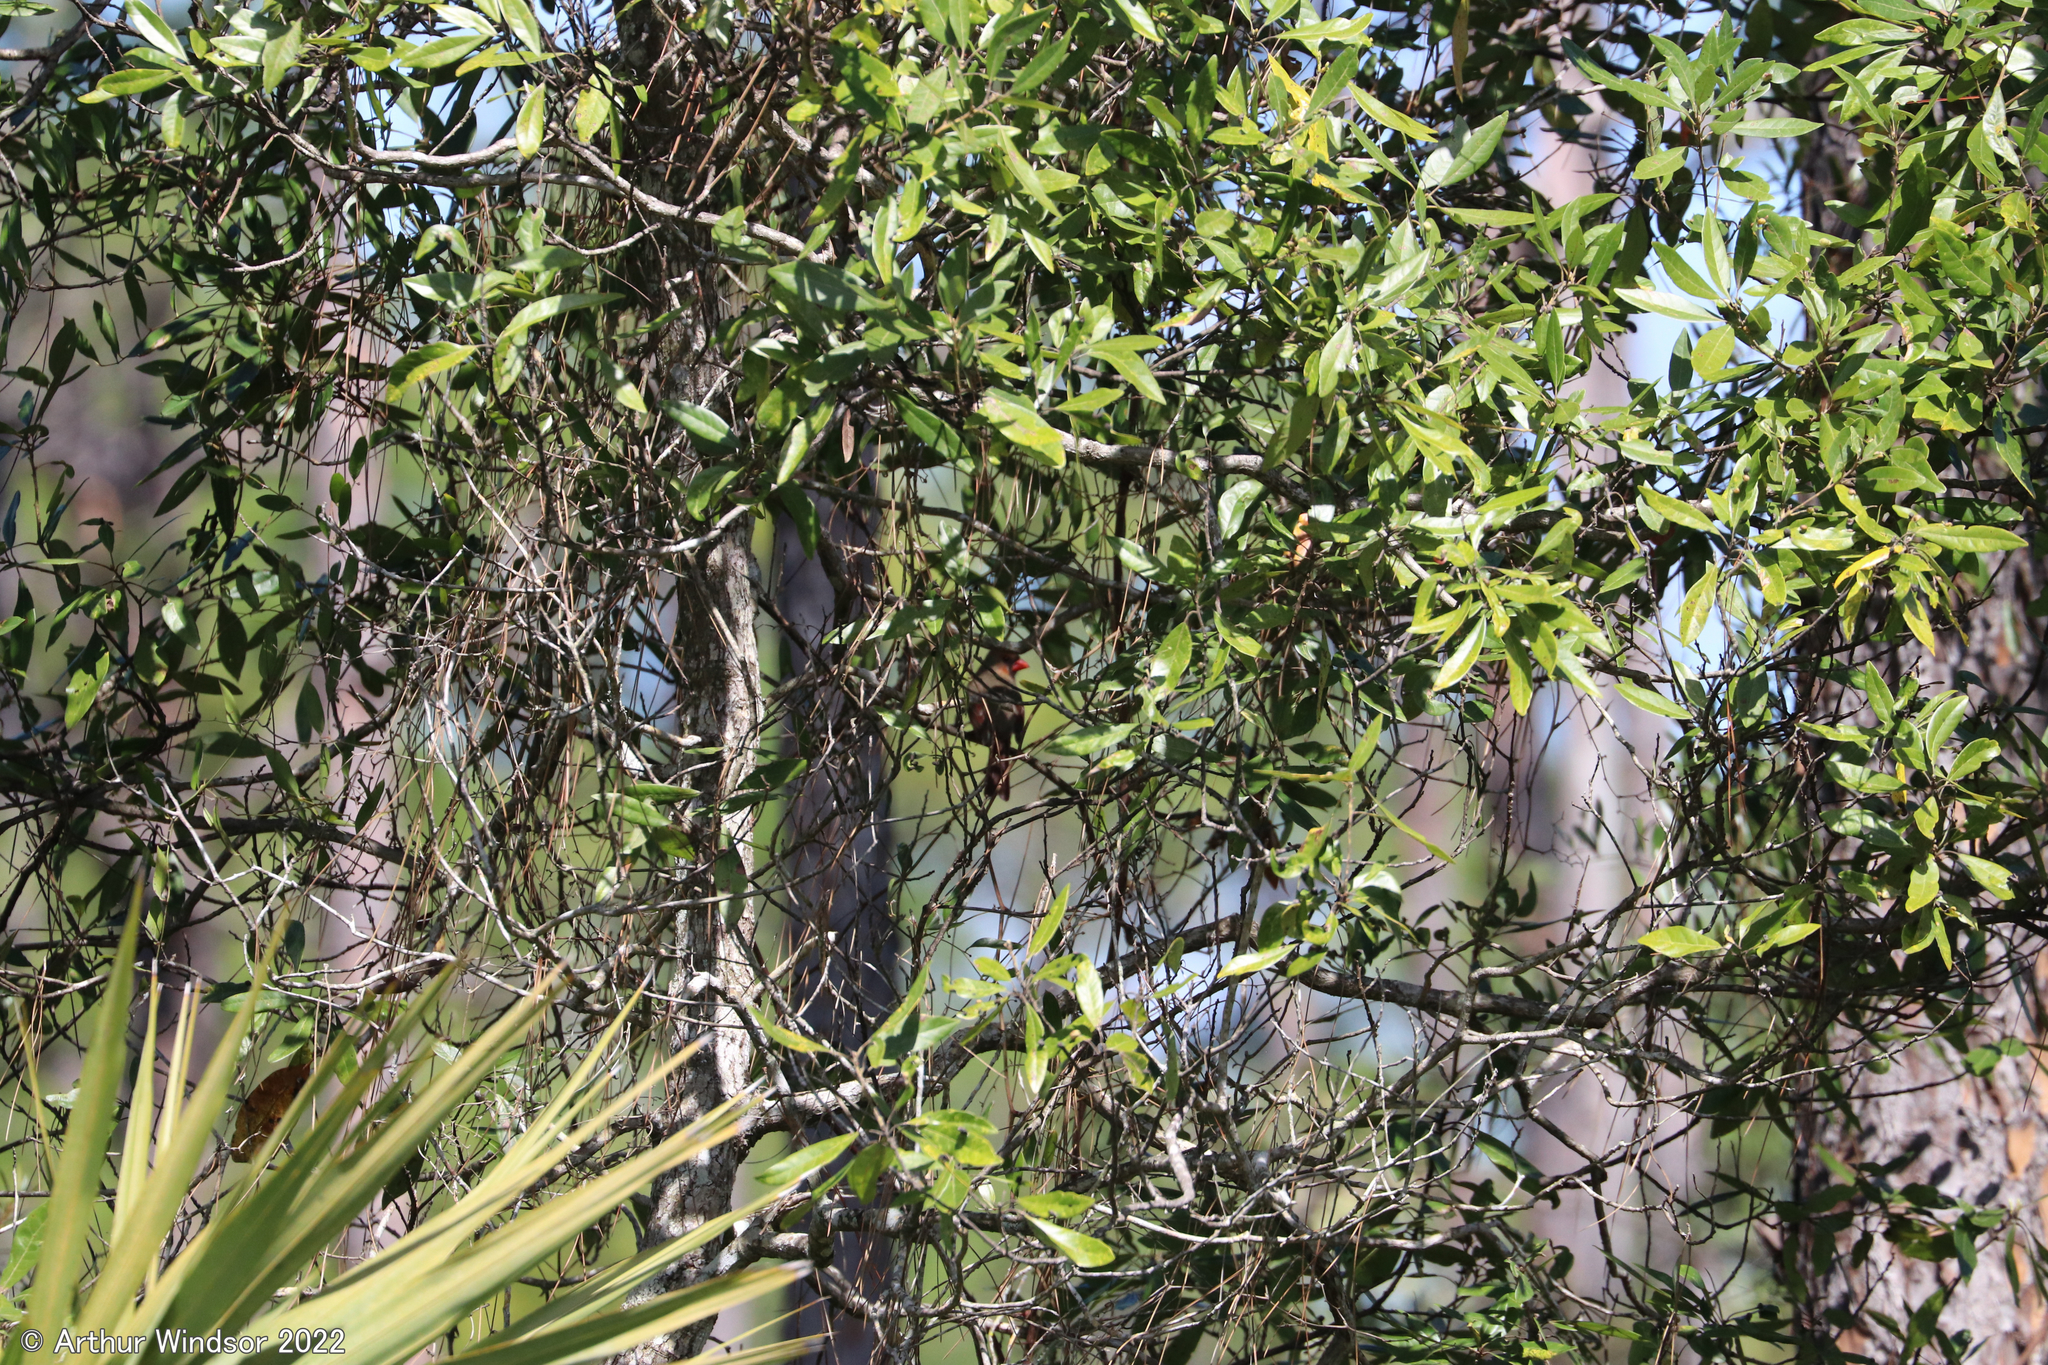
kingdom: Animalia
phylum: Chordata
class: Aves
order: Passeriformes
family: Cardinalidae
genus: Cardinalis
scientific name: Cardinalis cardinalis
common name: Northern cardinal
